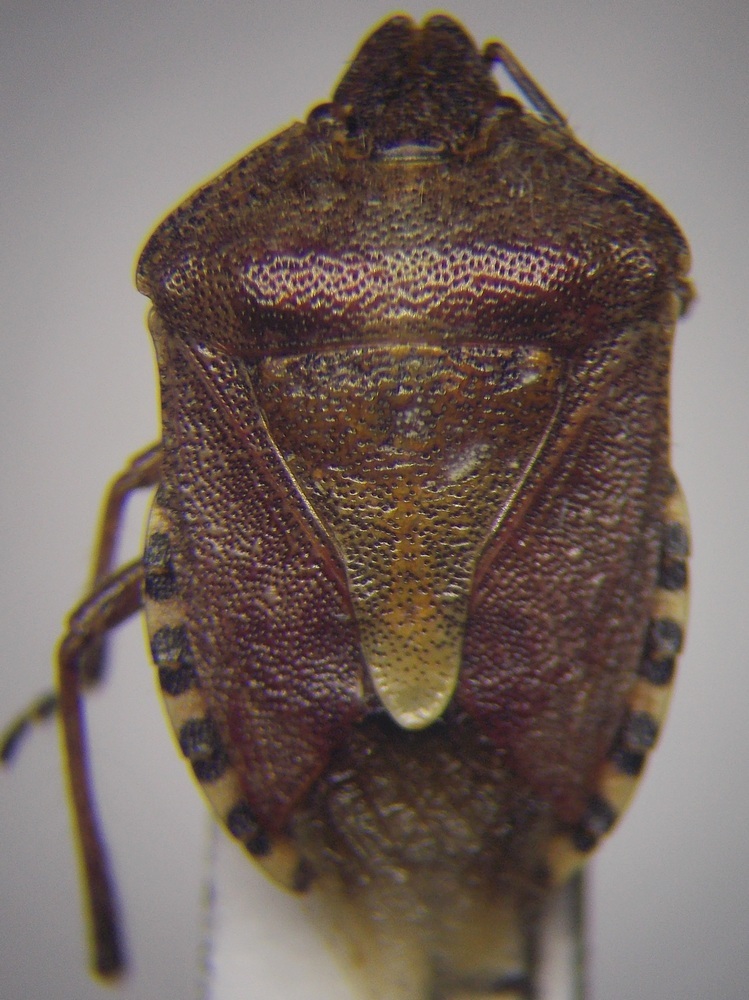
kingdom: Animalia
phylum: Arthropoda
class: Insecta
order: Hemiptera
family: Pentatomidae
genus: Dolycoris
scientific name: Dolycoris baccarum
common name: Sloe bug
